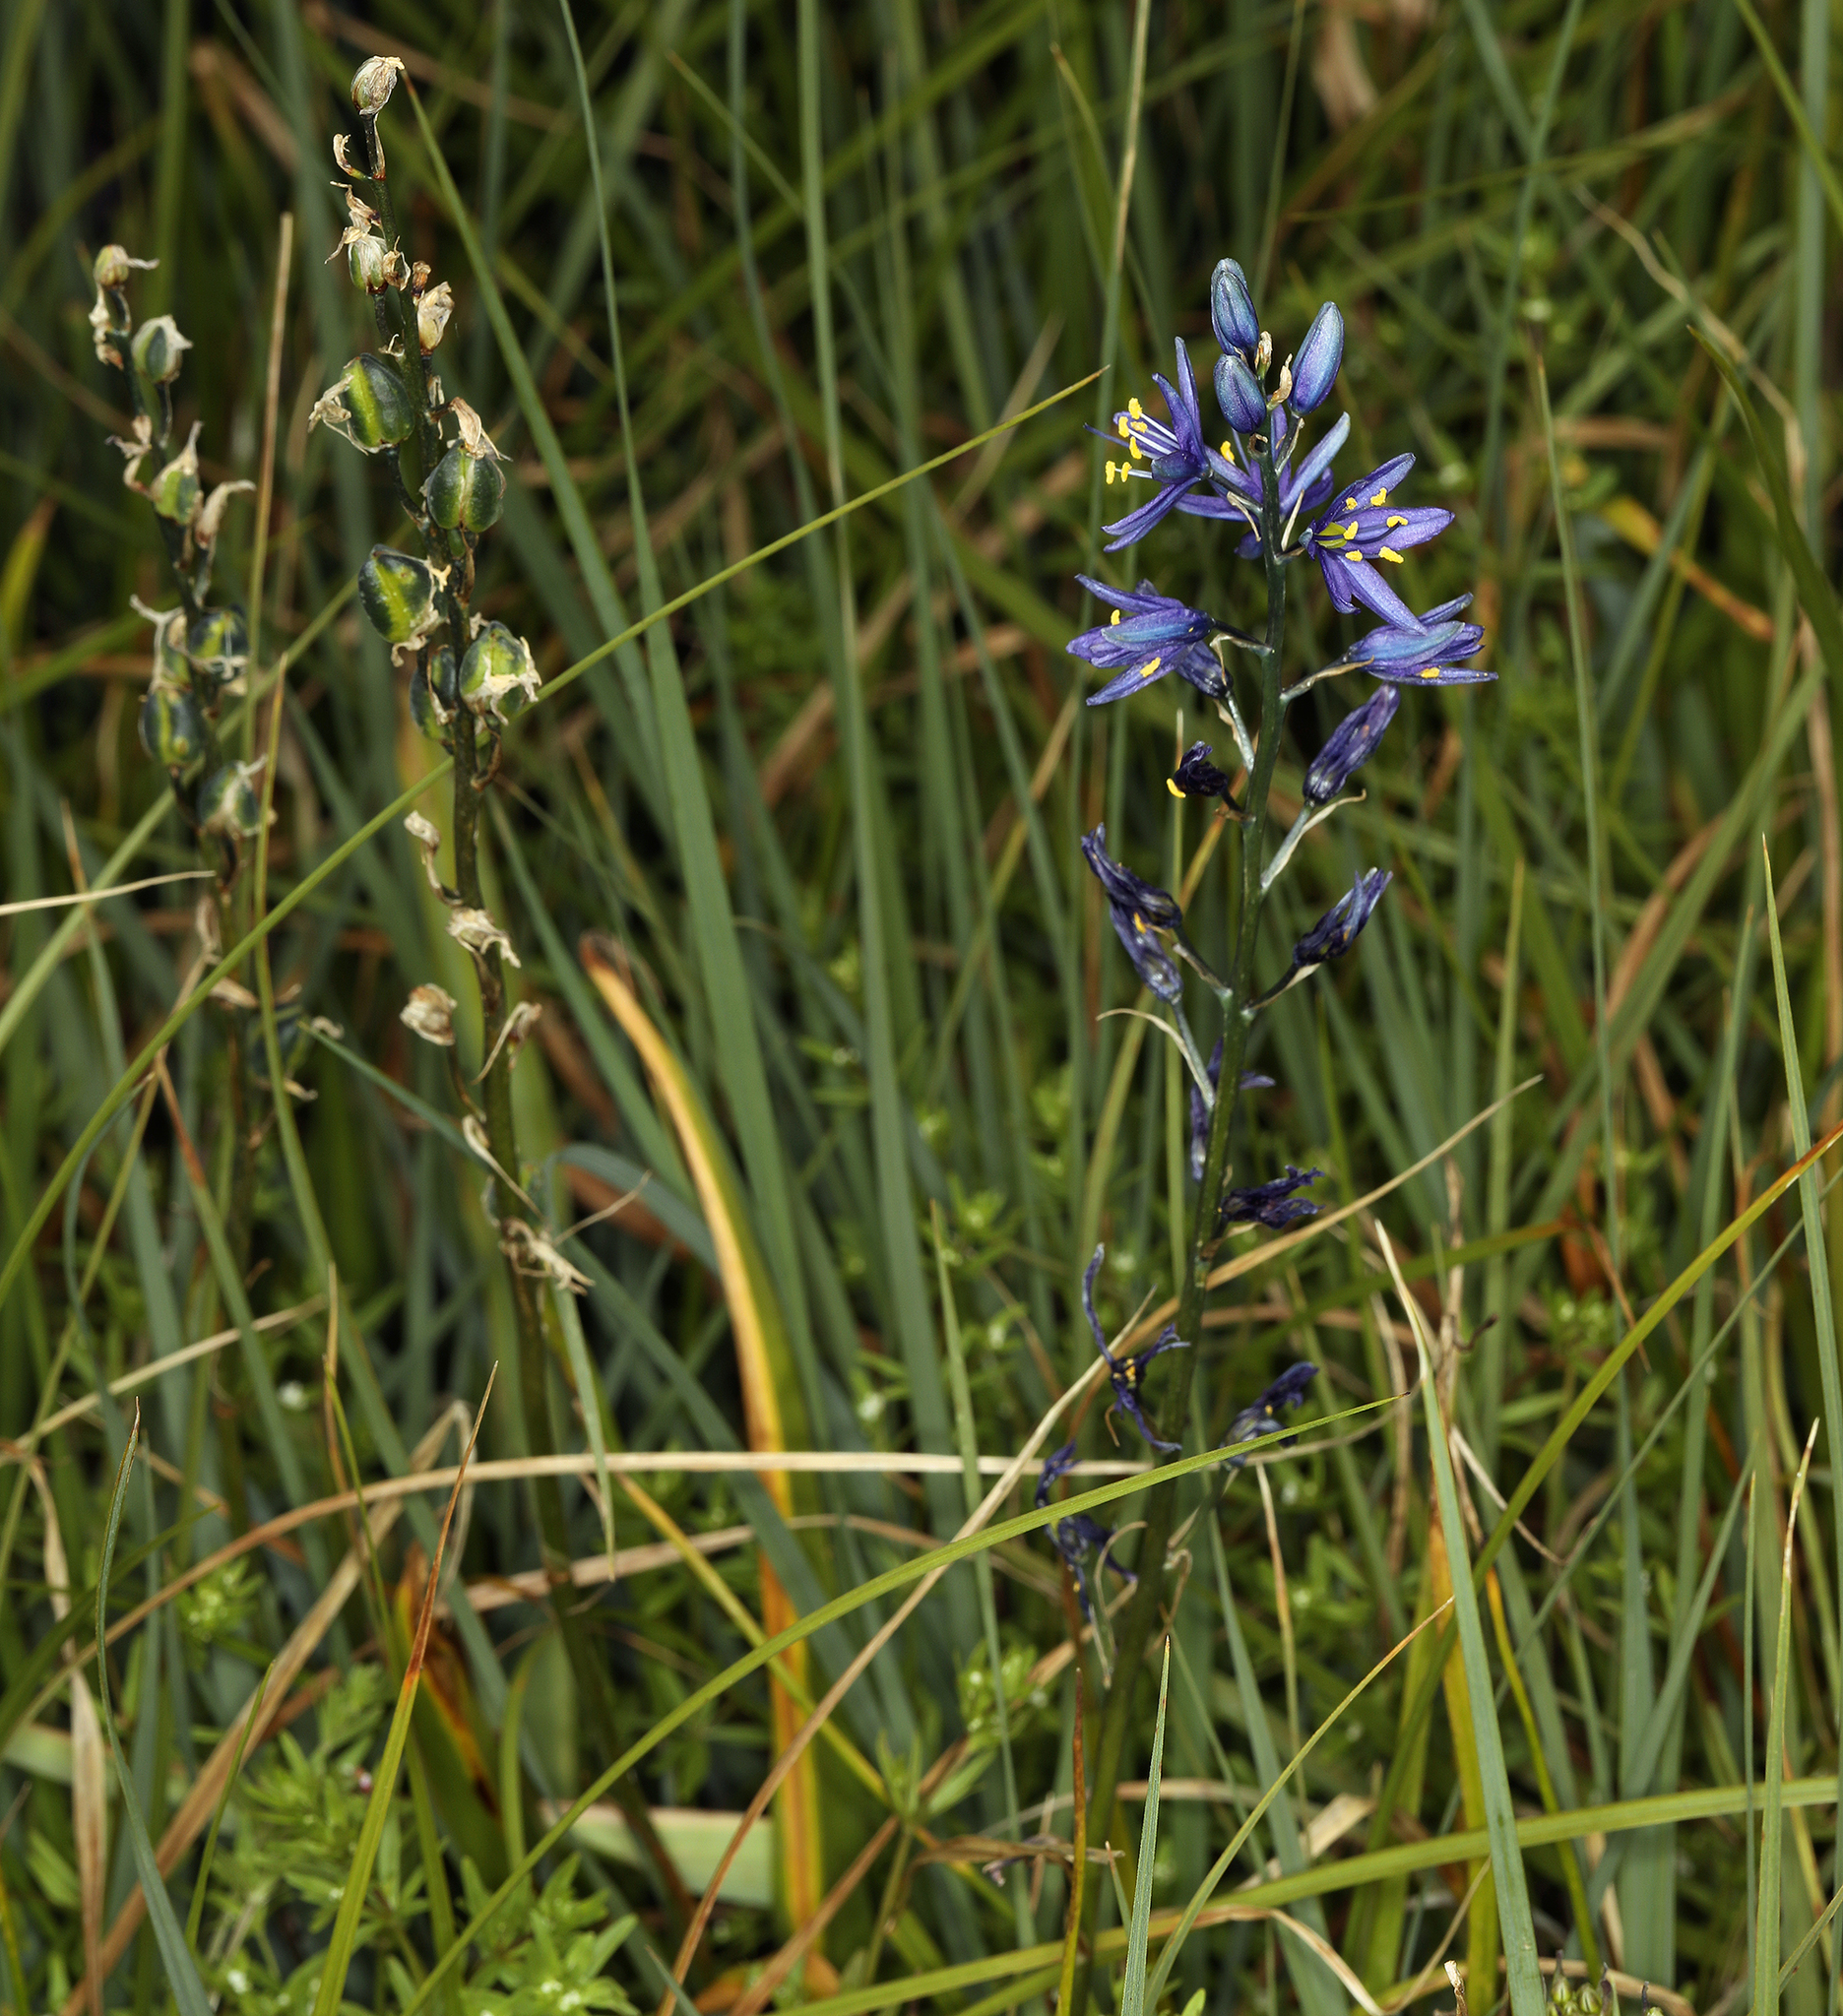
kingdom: Plantae
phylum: Tracheophyta
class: Liliopsida
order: Asparagales
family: Asparagaceae
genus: Camassia
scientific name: Camassia quamash
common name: Common camas
